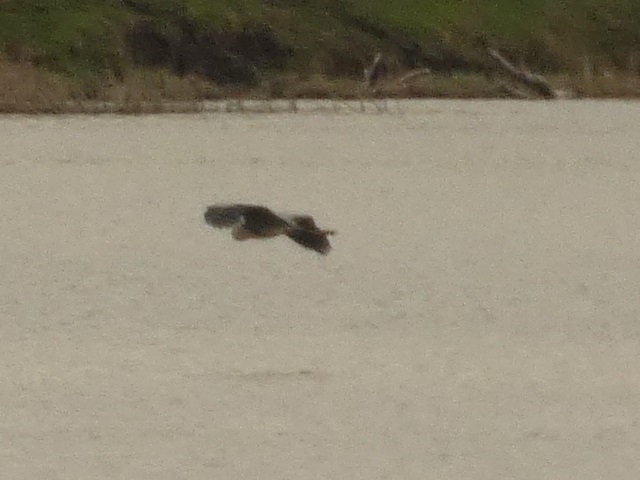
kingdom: Animalia
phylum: Chordata
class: Aves
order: Pelecaniformes
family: Ardeidae
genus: Ardea
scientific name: Ardea cinerea
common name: Grey heron
